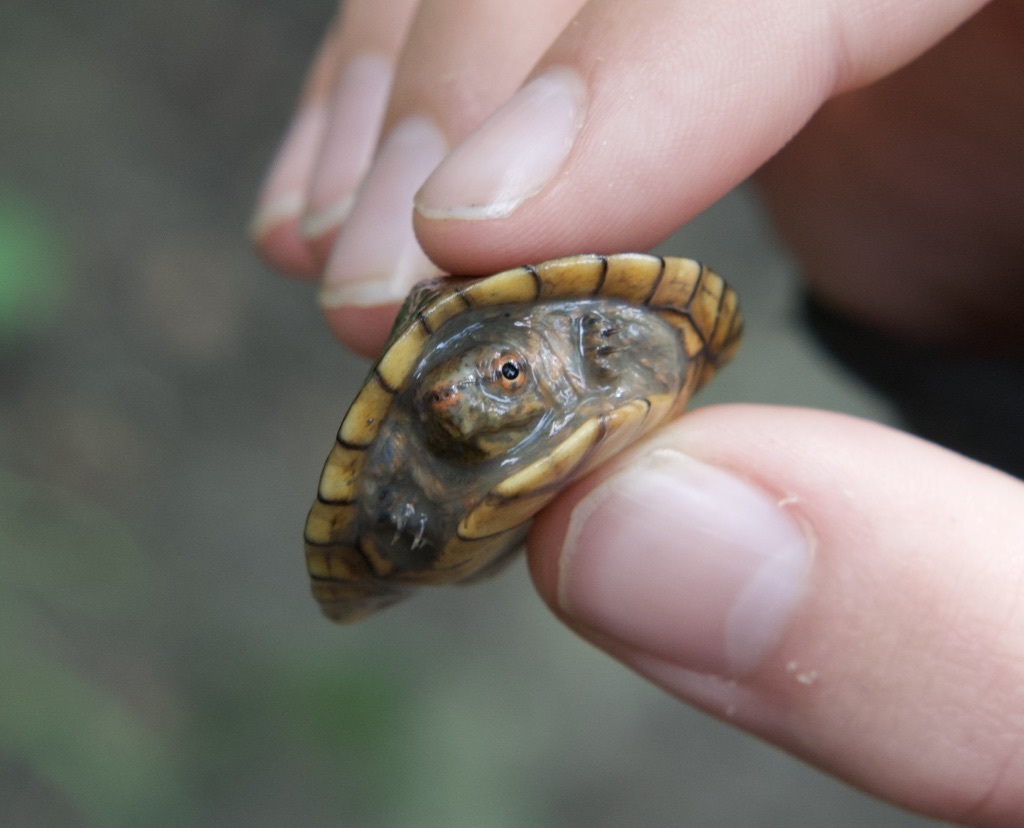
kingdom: Animalia
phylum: Chordata
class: Testudines
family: Kinosternidae
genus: Kinosternon
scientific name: Kinosternon acutum
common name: Tabasco mud turtle
